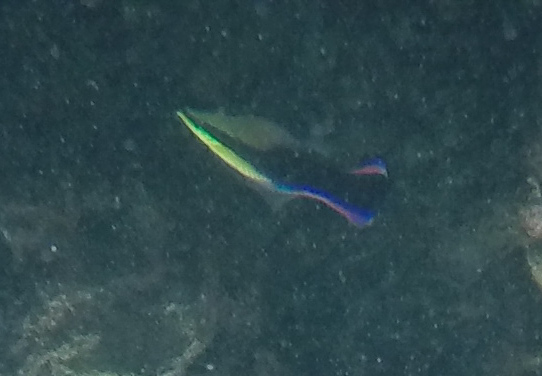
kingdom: Animalia
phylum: Chordata
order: Perciformes
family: Labridae
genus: Labroides
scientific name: Labroides phthirophagus
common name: Cleaner wrasse
